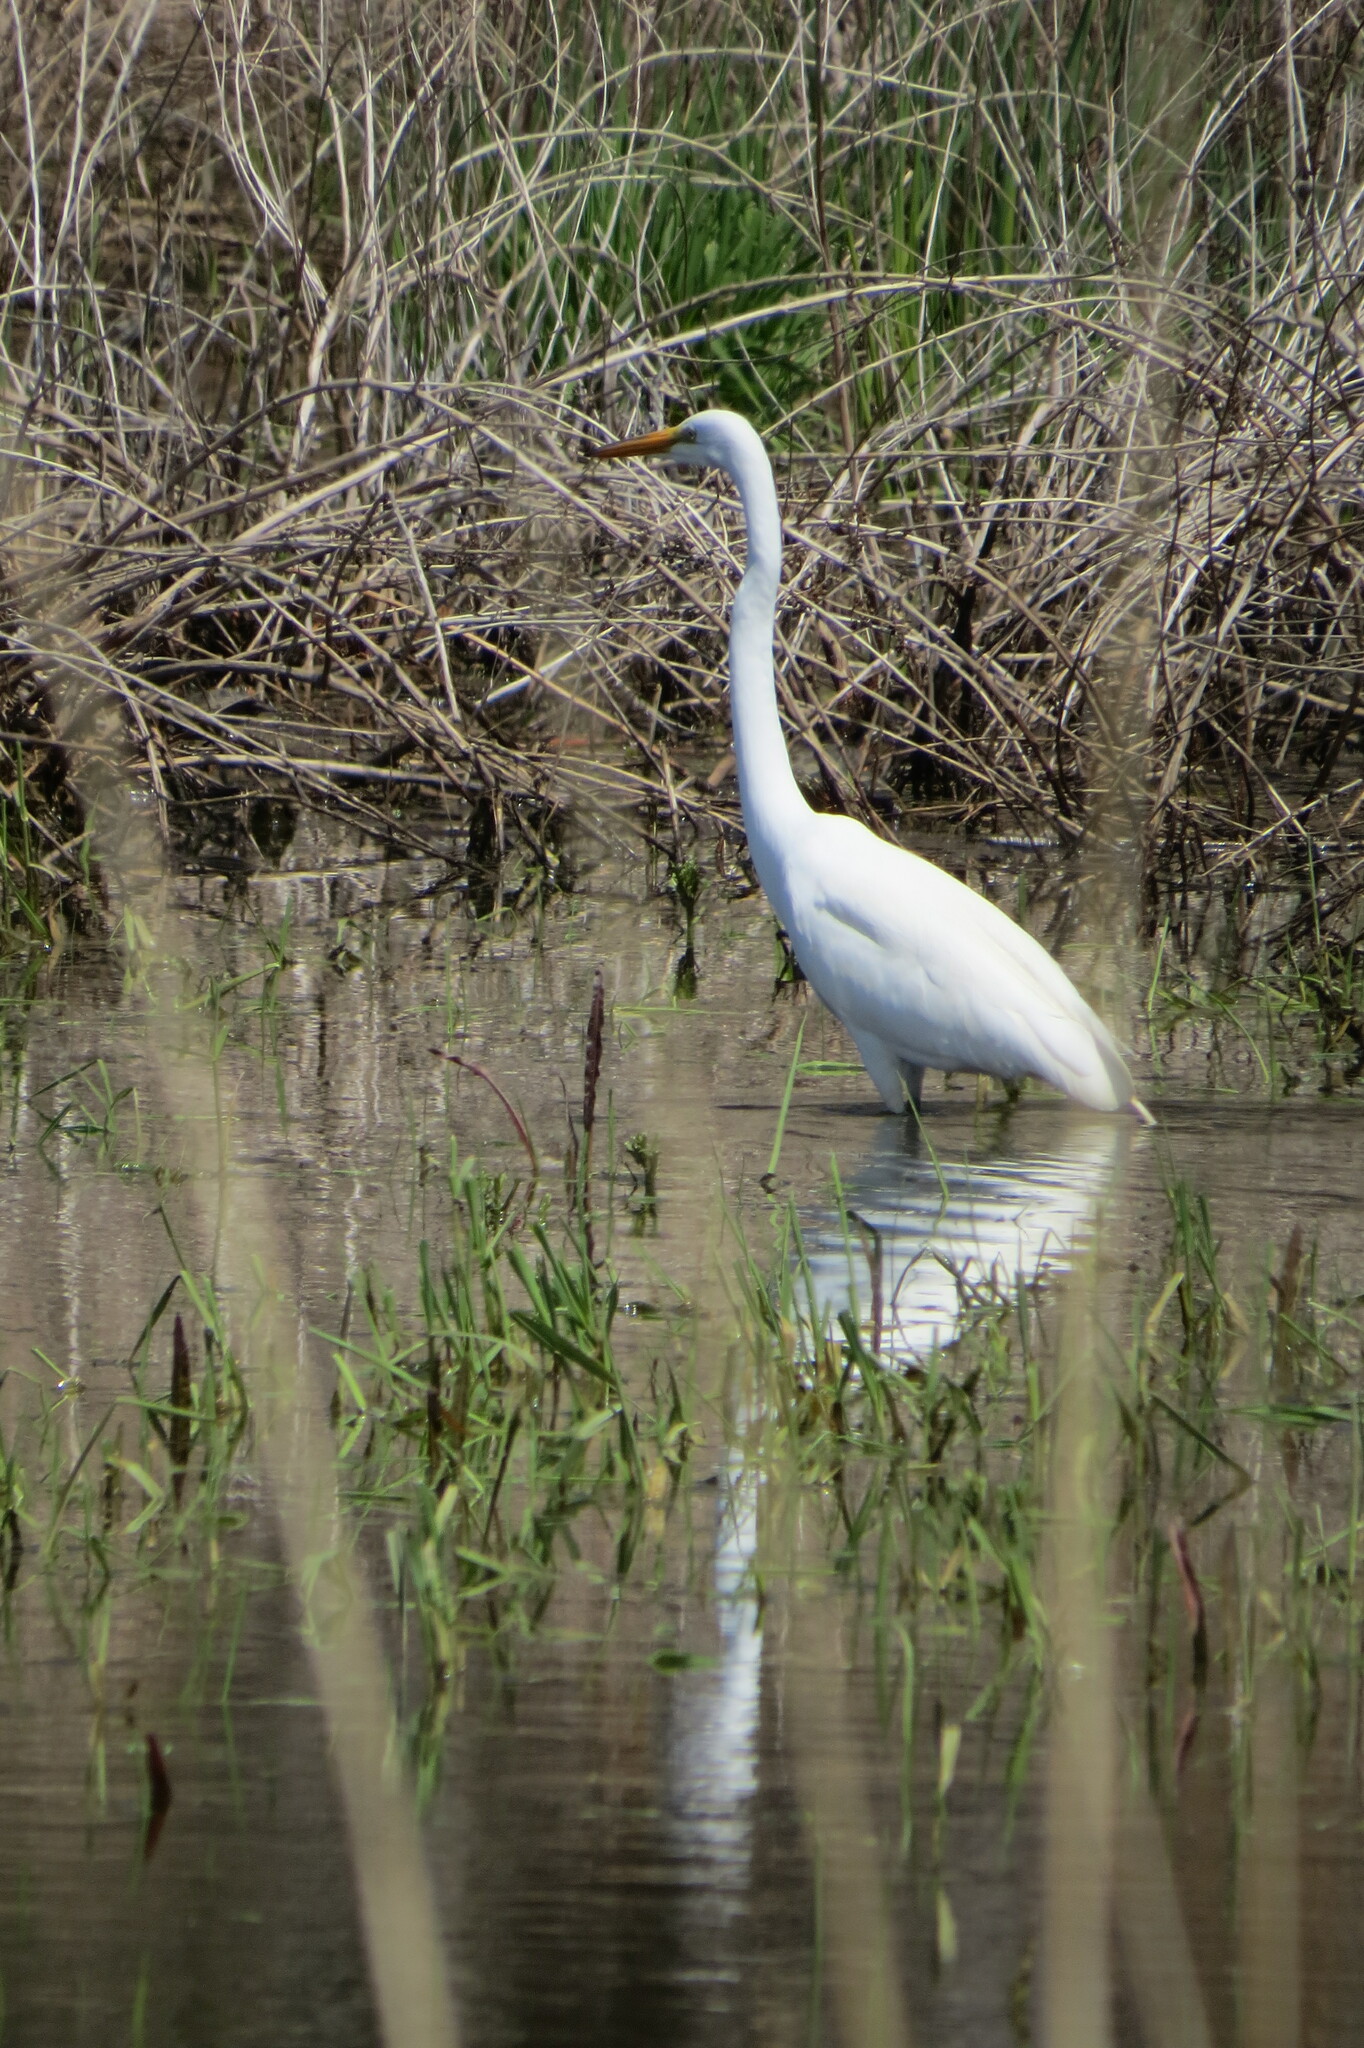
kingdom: Animalia
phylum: Chordata
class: Aves
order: Pelecaniformes
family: Ardeidae
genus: Ardea
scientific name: Ardea alba
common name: Great egret
